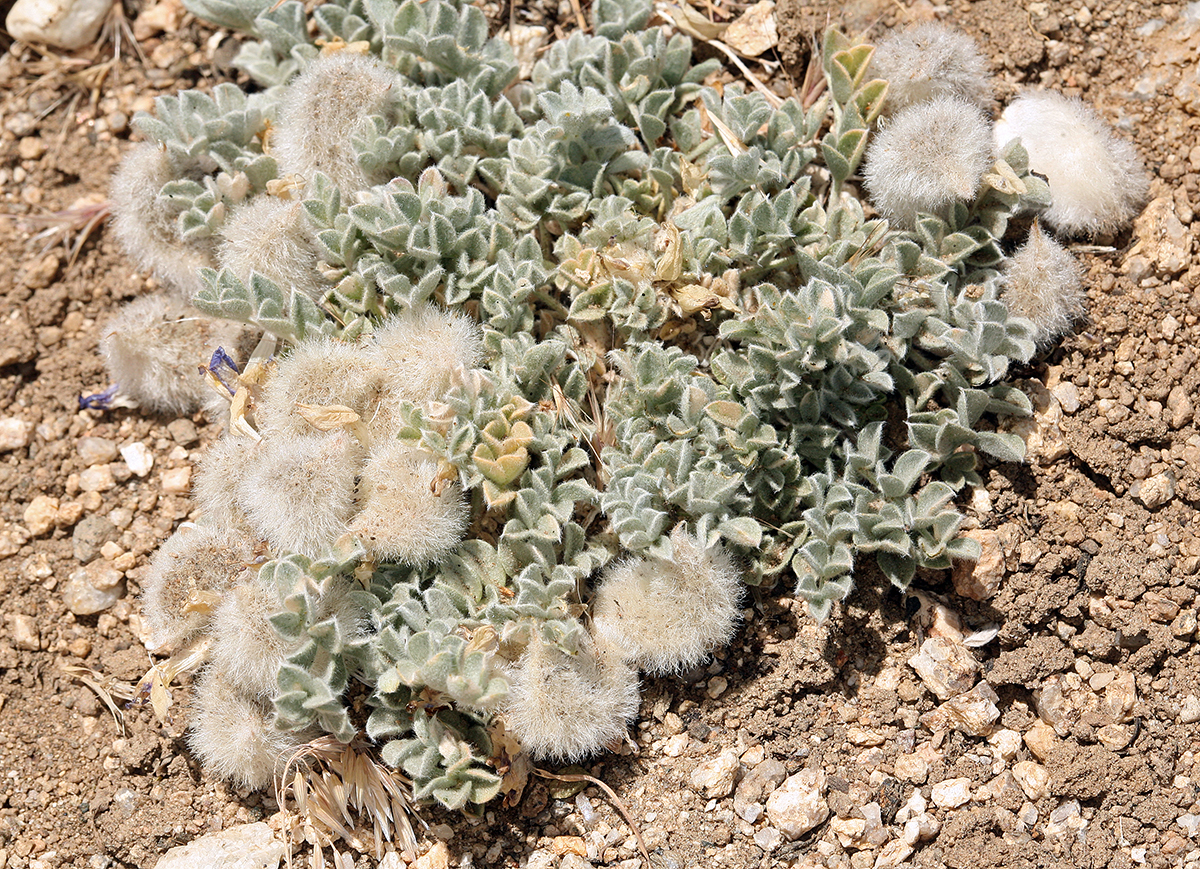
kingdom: Plantae
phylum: Tracheophyta
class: Magnoliopsida
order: Fabales
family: Fabaceae
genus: Astragalus
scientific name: Astragalus purshii
